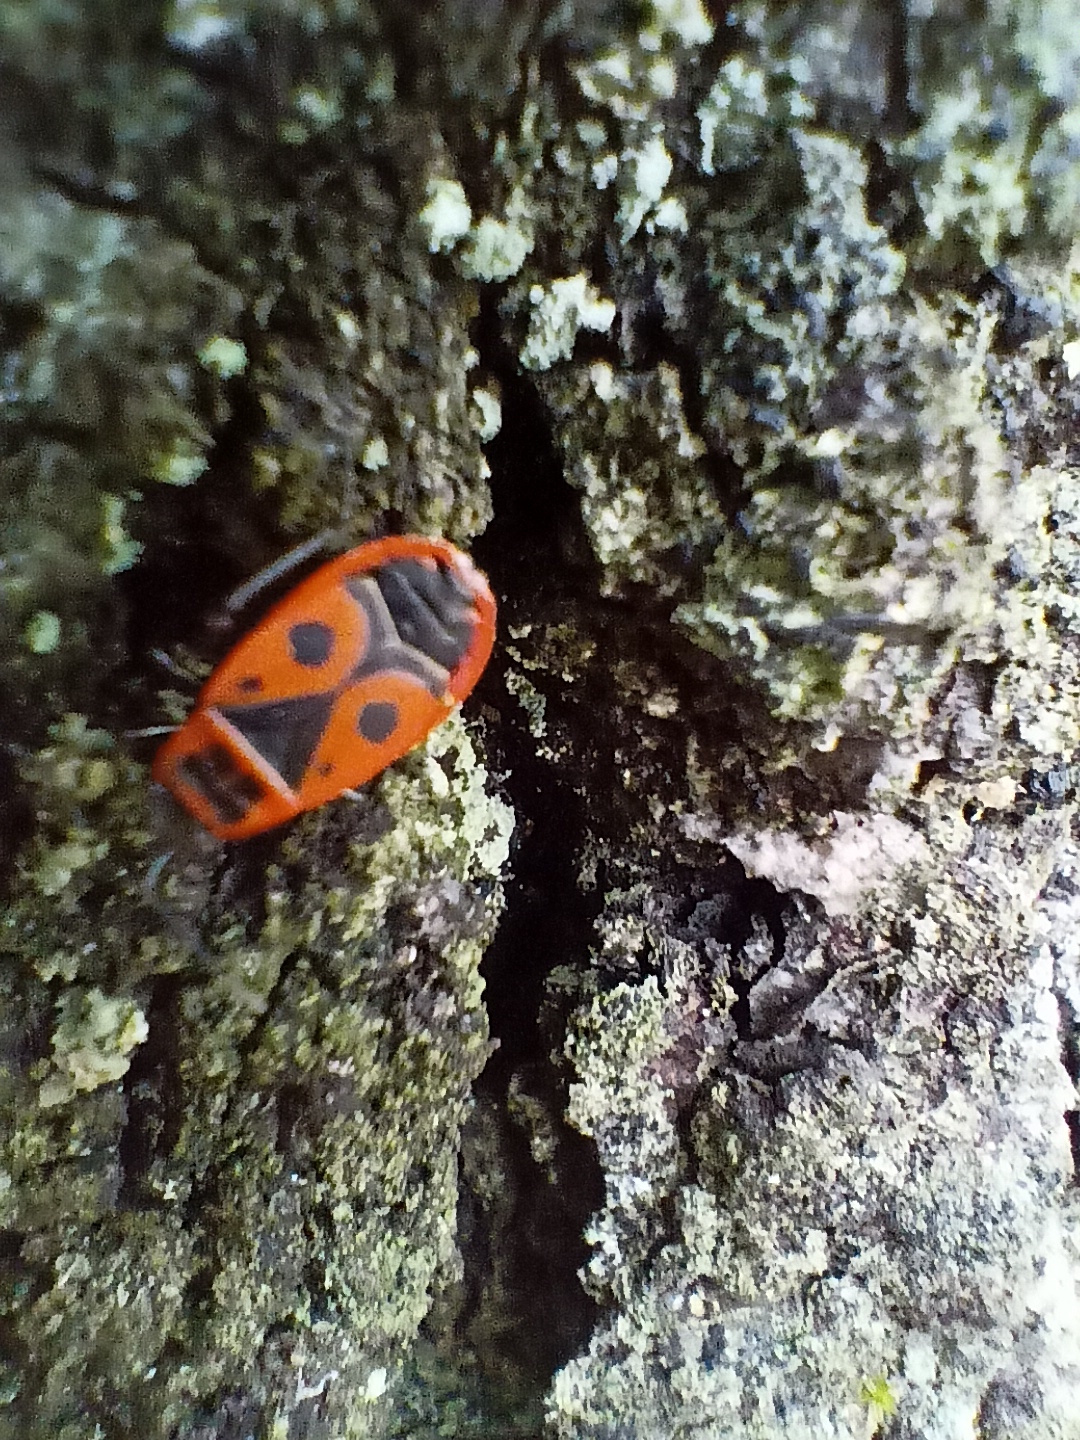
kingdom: Animalia
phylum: Arthropoda
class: Insecta
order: Hemiptera
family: Pyrrhocoridae
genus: Pyrrhocoris
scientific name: Pyrrhocoris apterus
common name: Firebug
